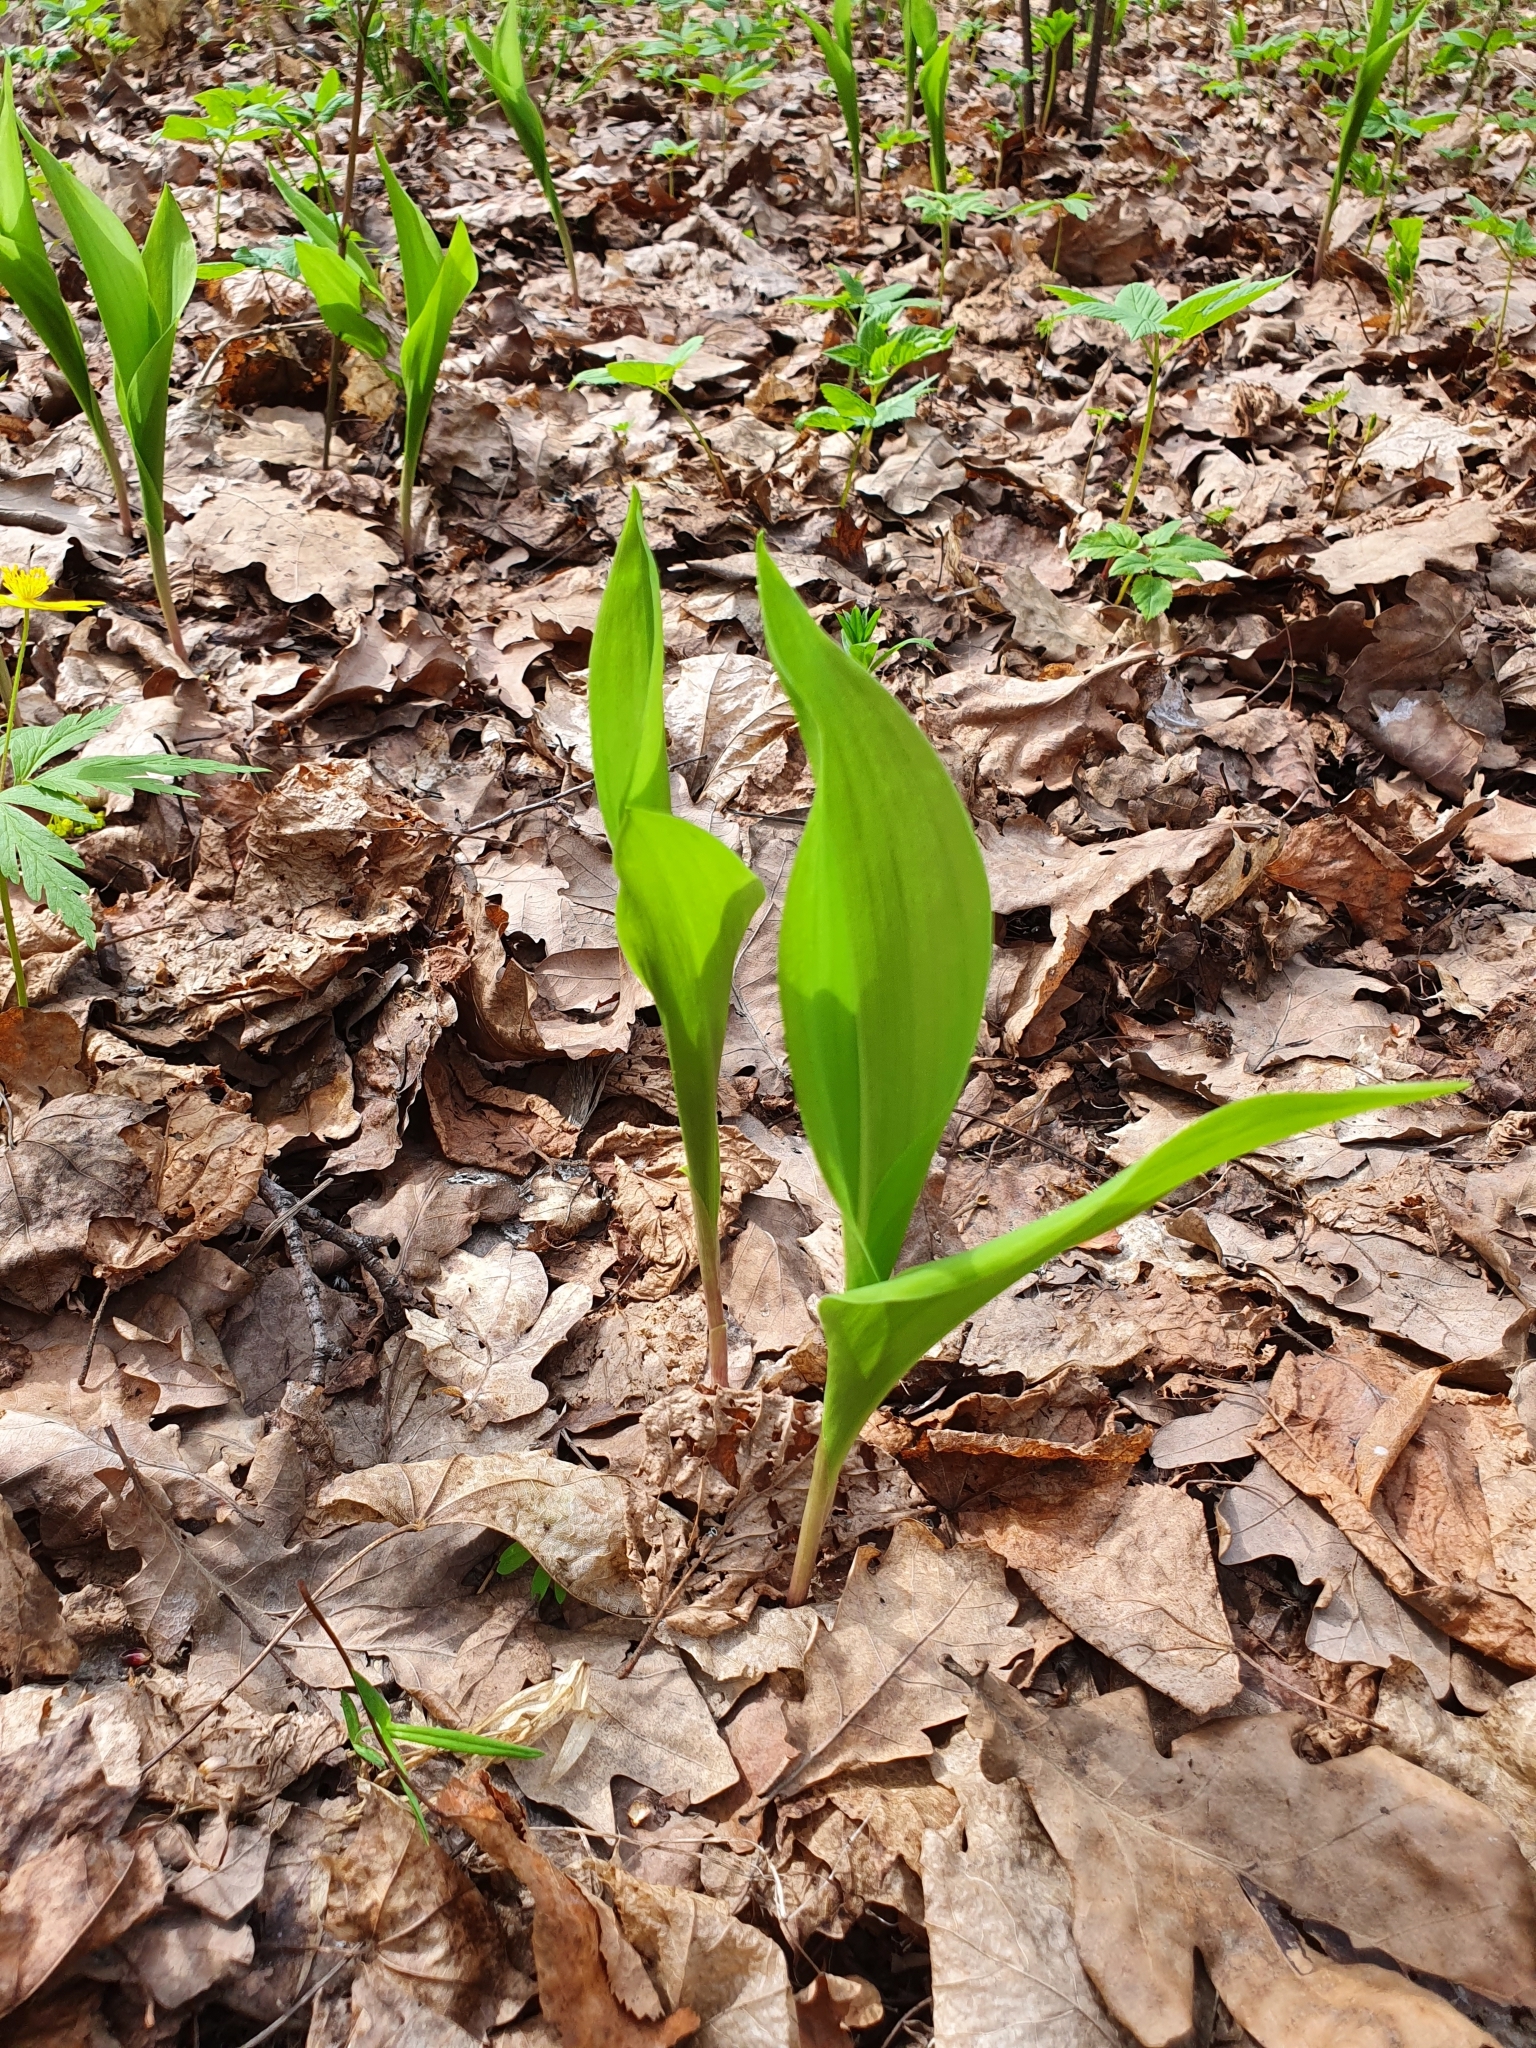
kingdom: Plantae
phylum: Tracheophyta
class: Liliopsida
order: Asparagales
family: Asparagaceae
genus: Convallaria
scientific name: Convallaria majalis
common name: Lily-of-the-valley
